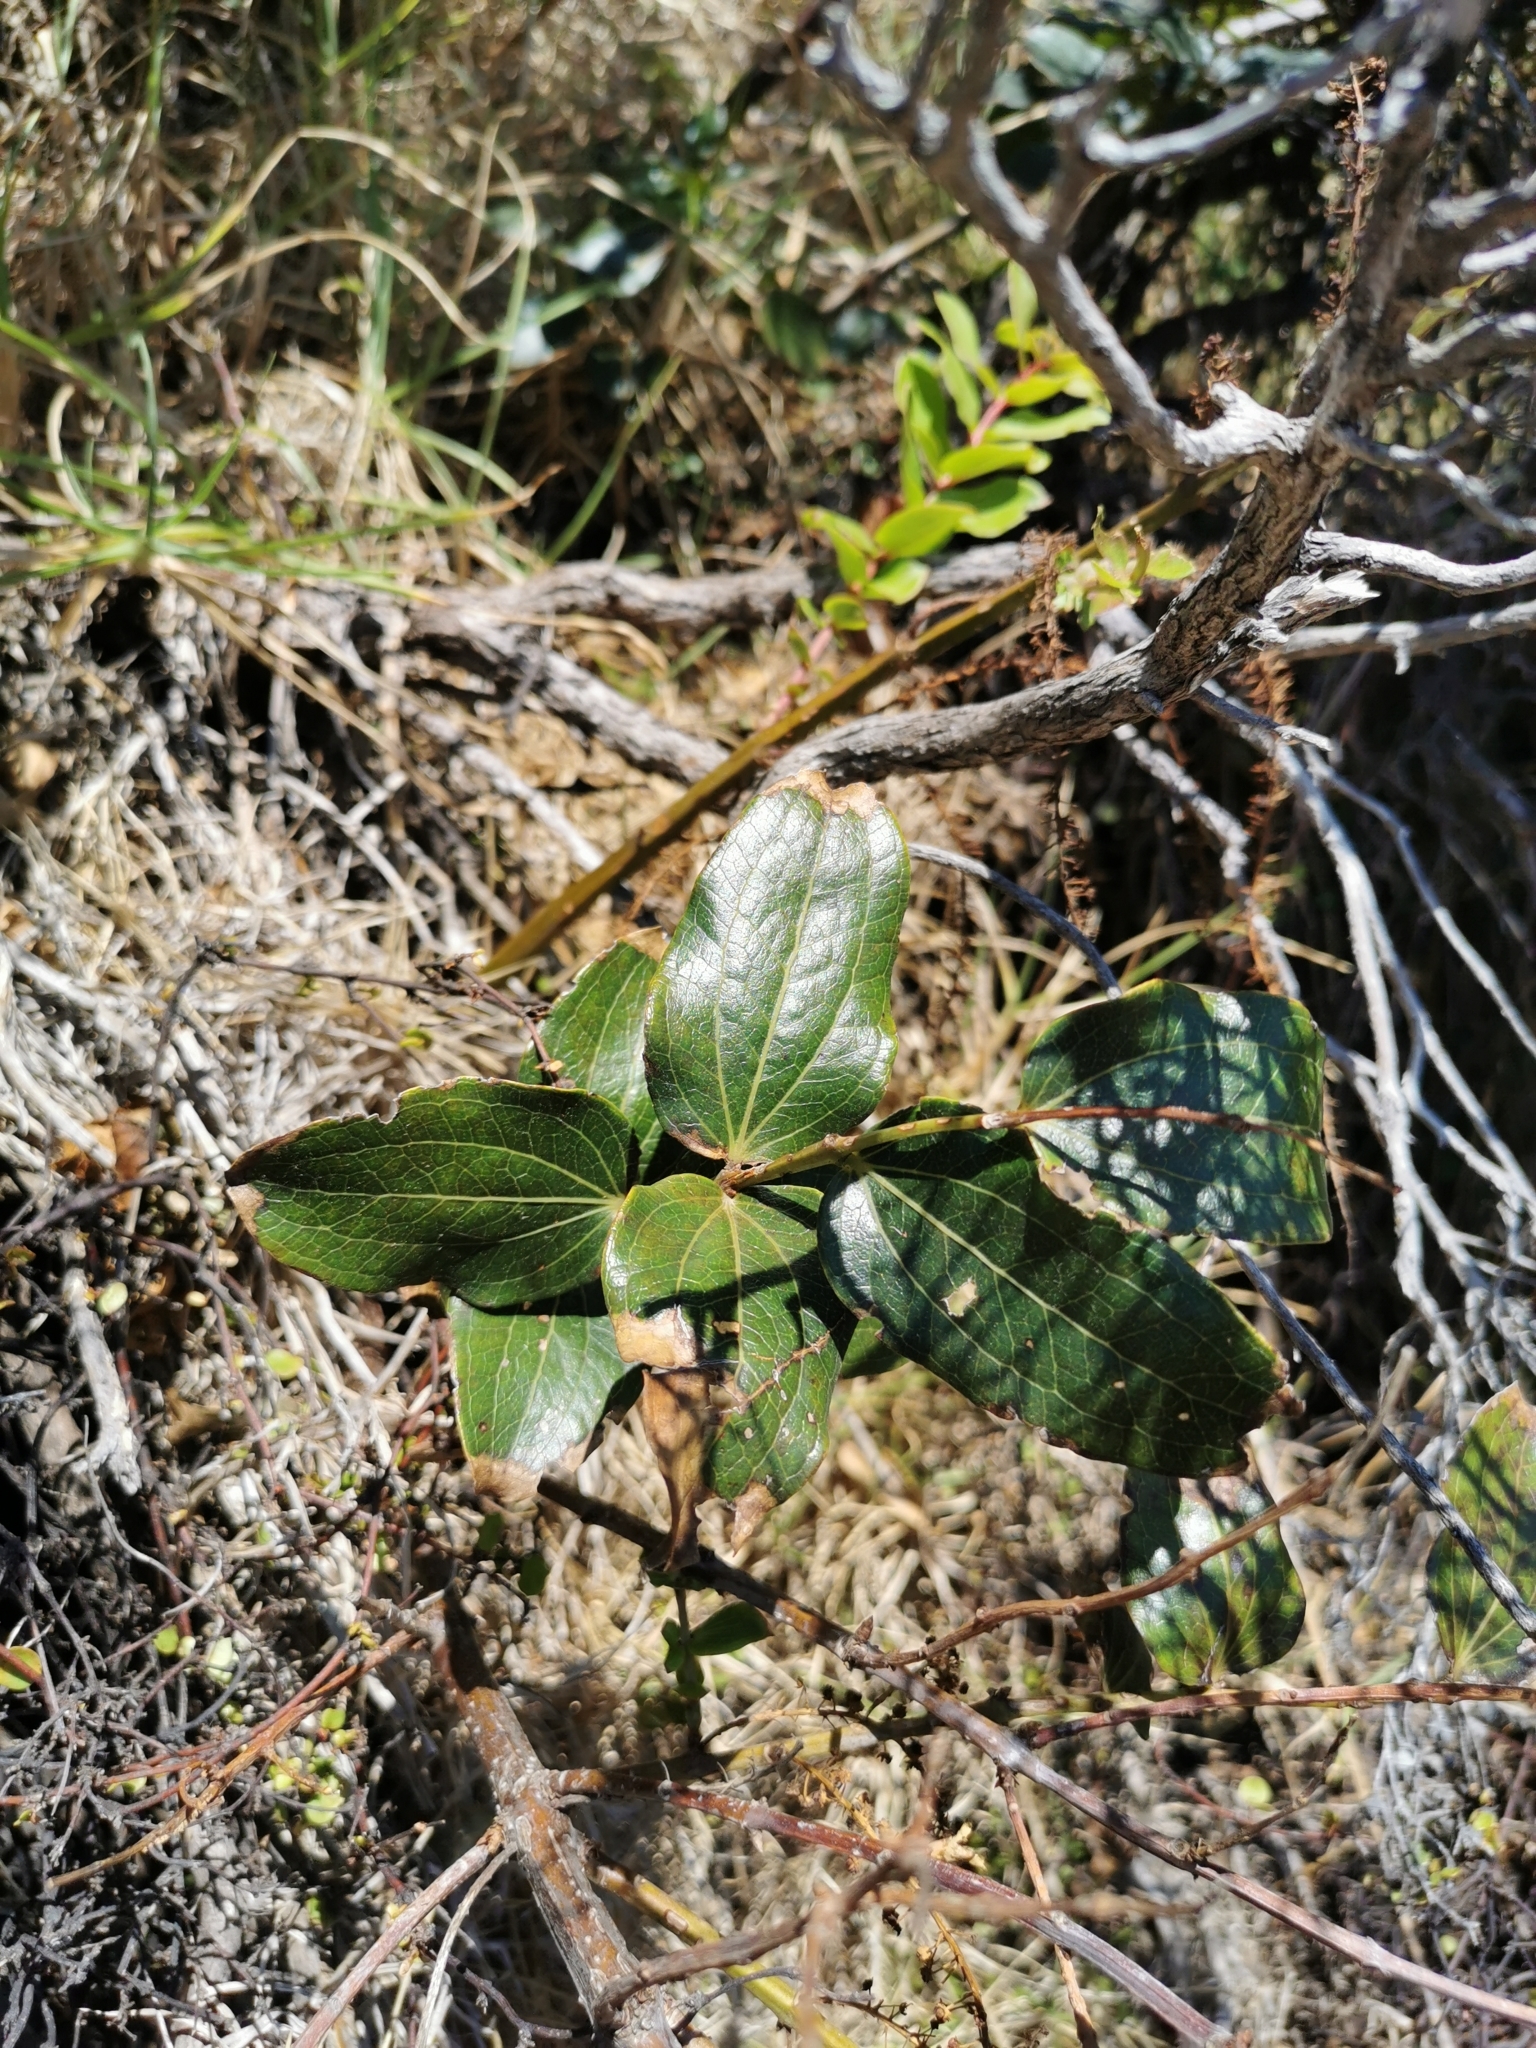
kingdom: Plantae
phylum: Tracheophyta
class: Magnoliopsida
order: Cucurbitales
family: Coriariaceae
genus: Coriaria
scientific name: Coriaria arborea
